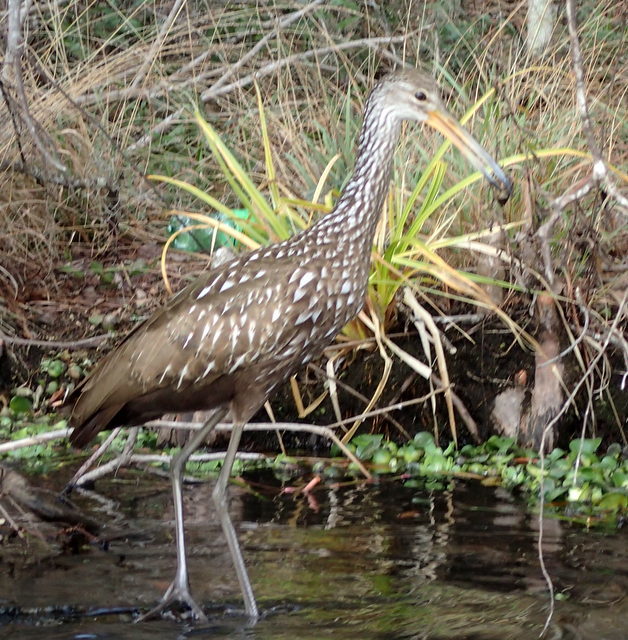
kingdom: Animalia
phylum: Chordata
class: Aves
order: Gruiformes
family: Aramidae
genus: Aramus
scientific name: Aramus guarauna
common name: Limpkin
